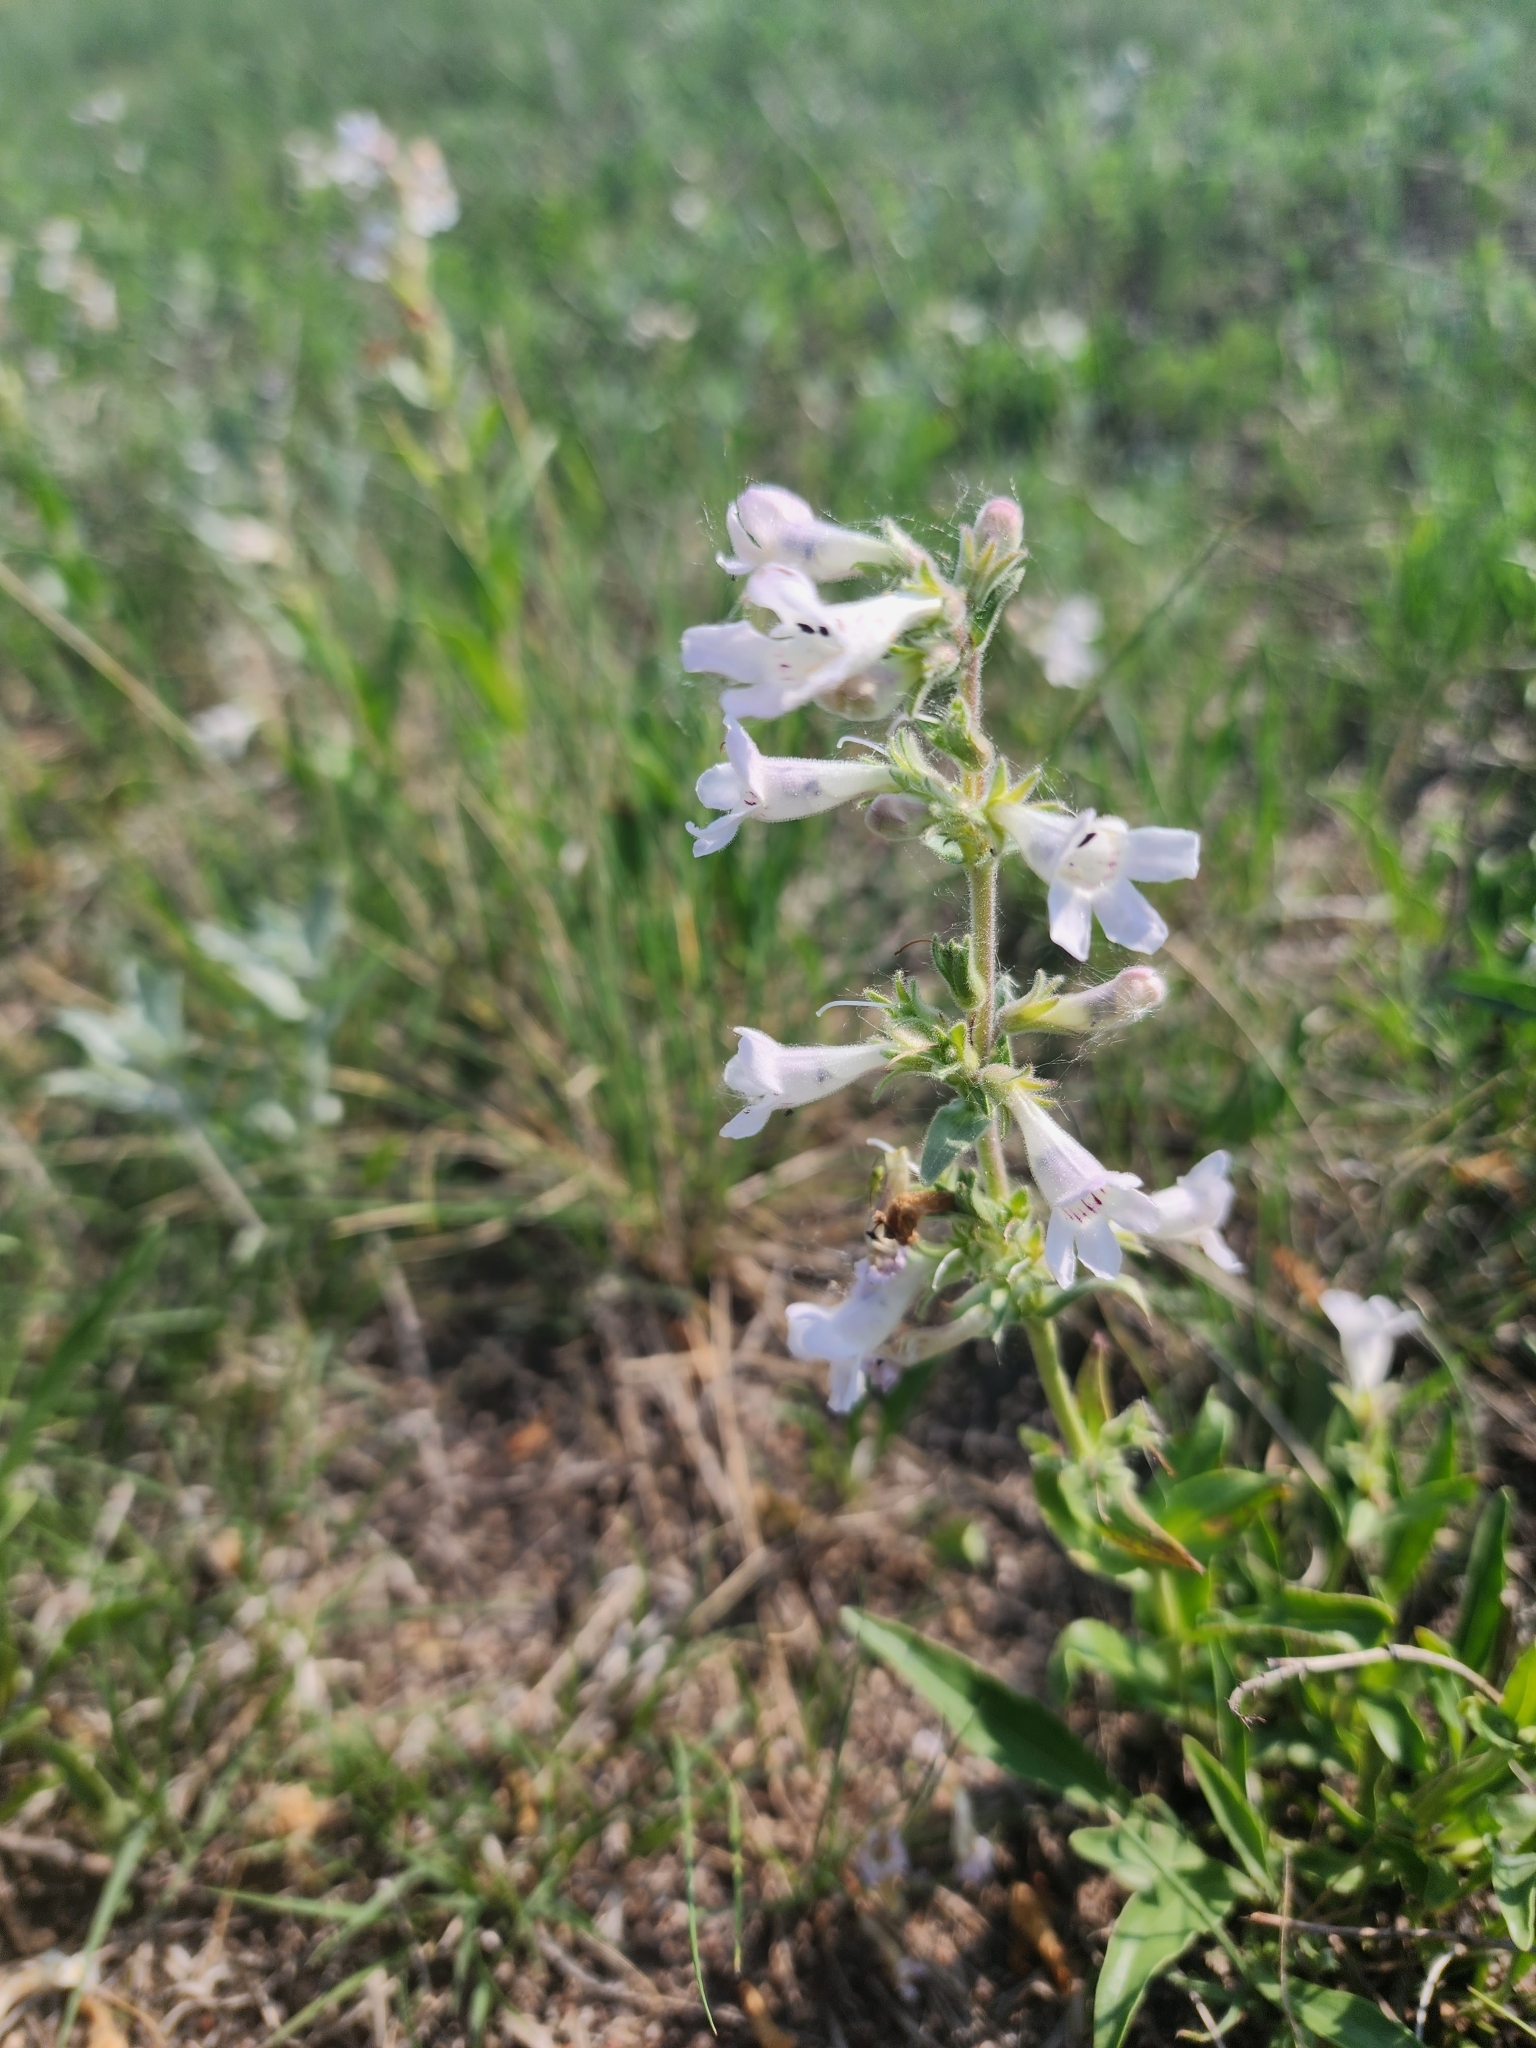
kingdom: Plantae
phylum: Tracheophyta
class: Magnoliopsida
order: Lamiales
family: Plantaginaceae
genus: Penstemon
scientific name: Penstemon albidus
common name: White beardtongue
